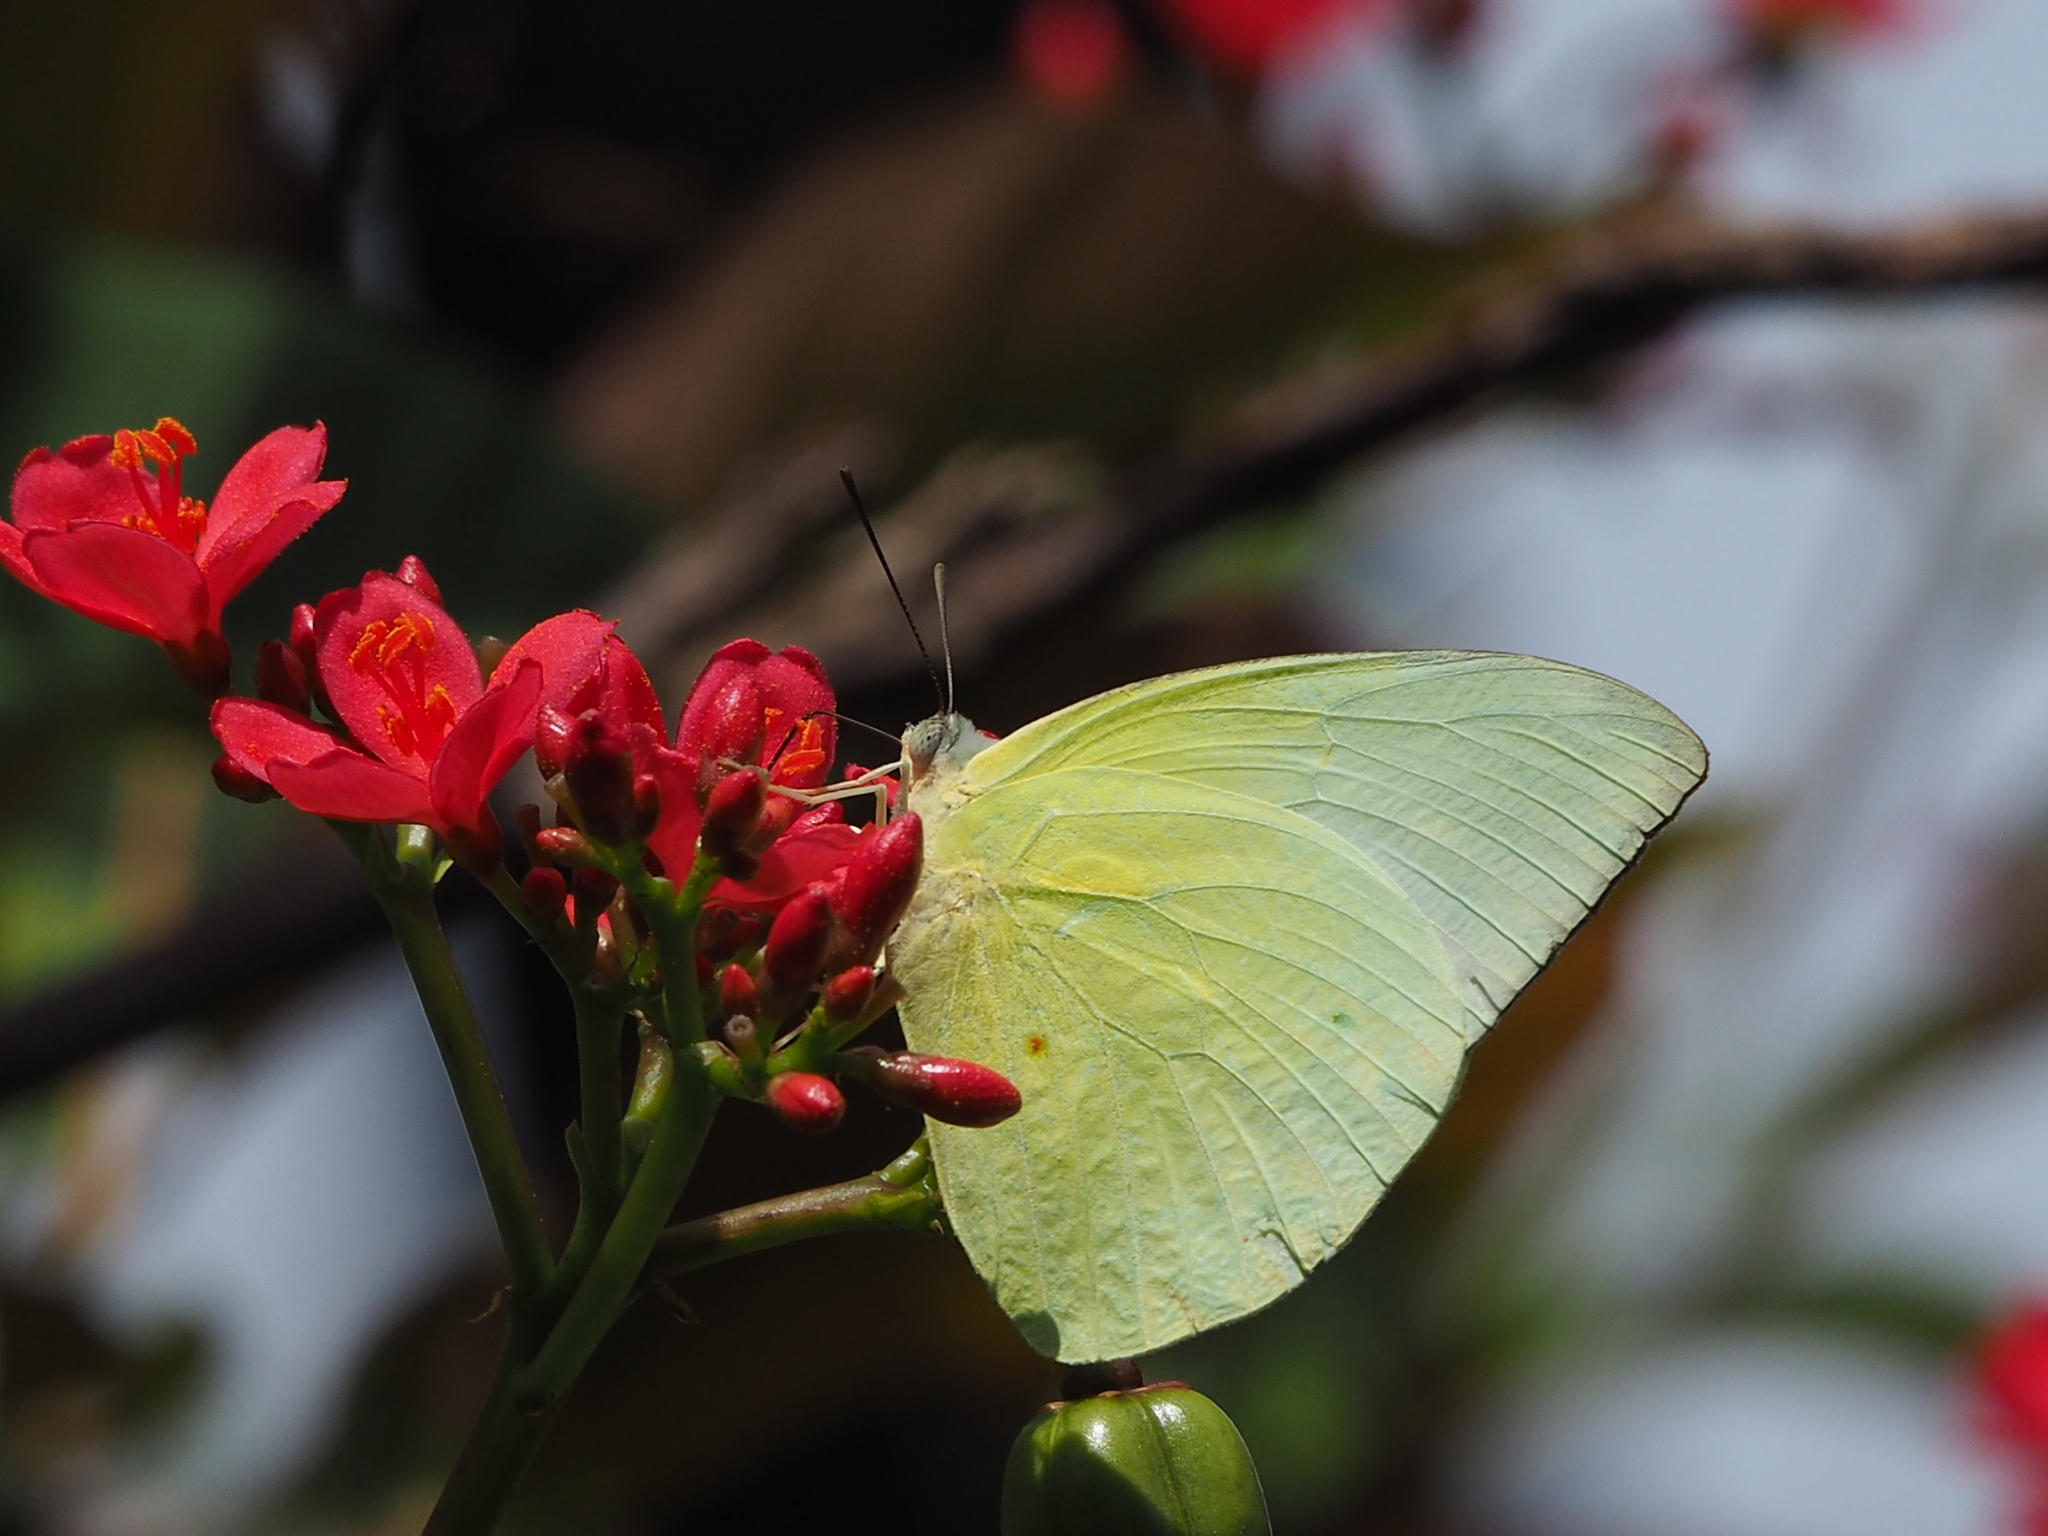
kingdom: Animalia
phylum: Arthropoda
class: Insecta
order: Lepidoptera
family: Pieridae
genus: Catopsilia
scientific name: Catopsilia pomona
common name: Common emigrant
